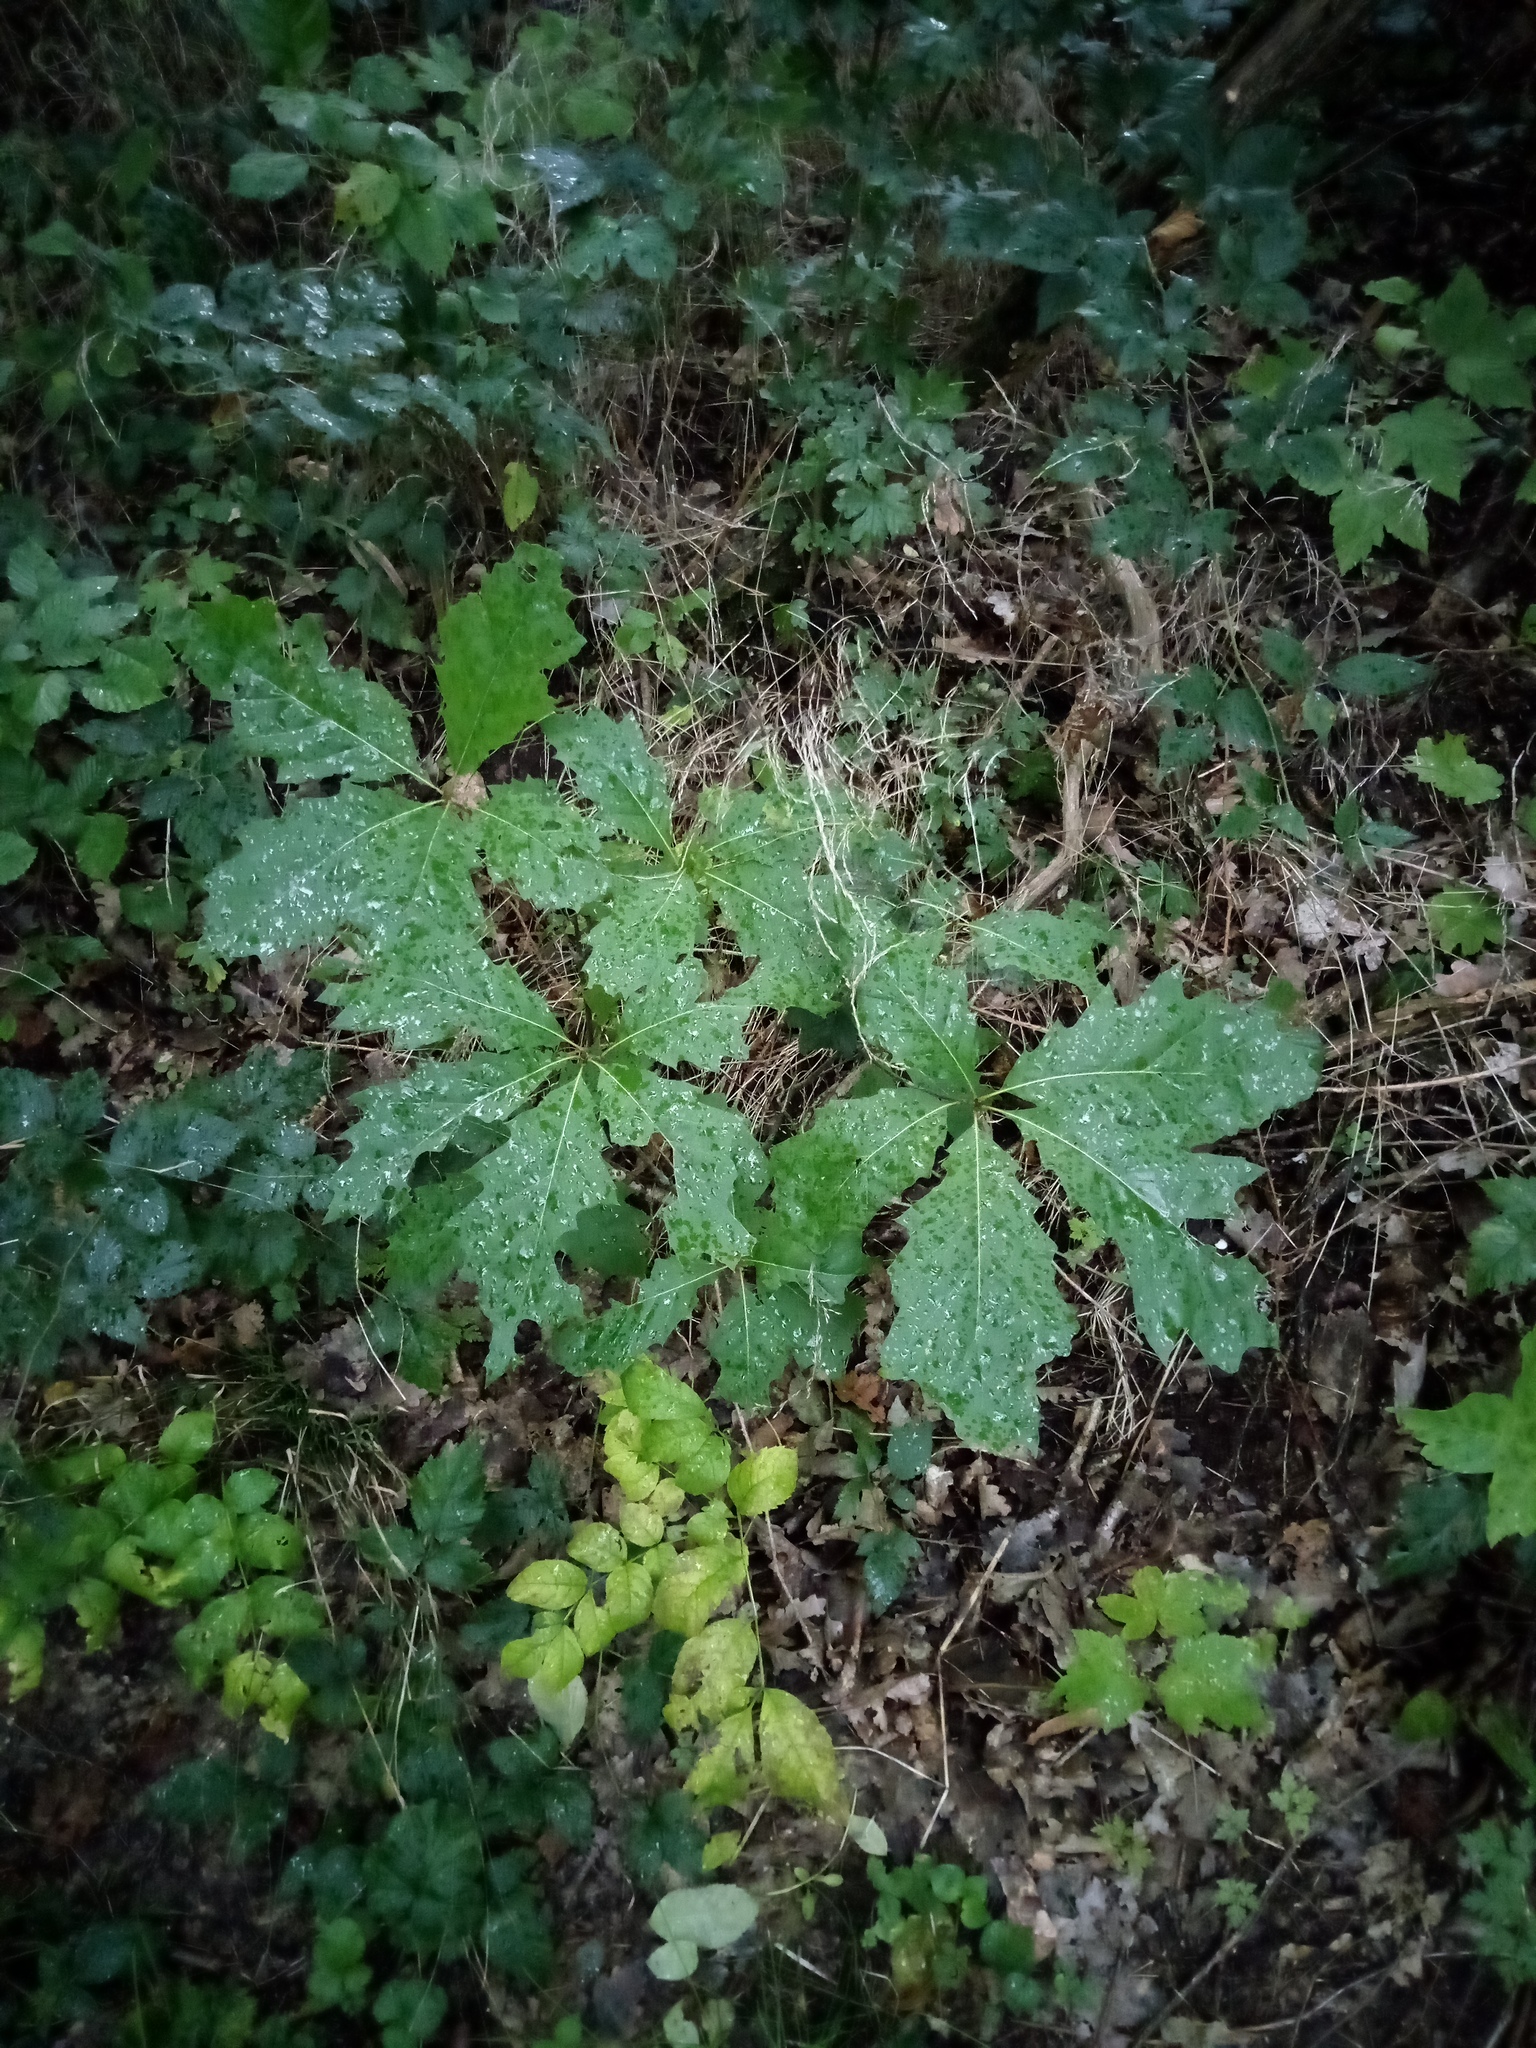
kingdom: Plantae
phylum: Tracheophyta
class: Magnoliopsida
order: Fagales
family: Fagaceae
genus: Quercus
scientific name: Quercus rubra
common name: Red oak
